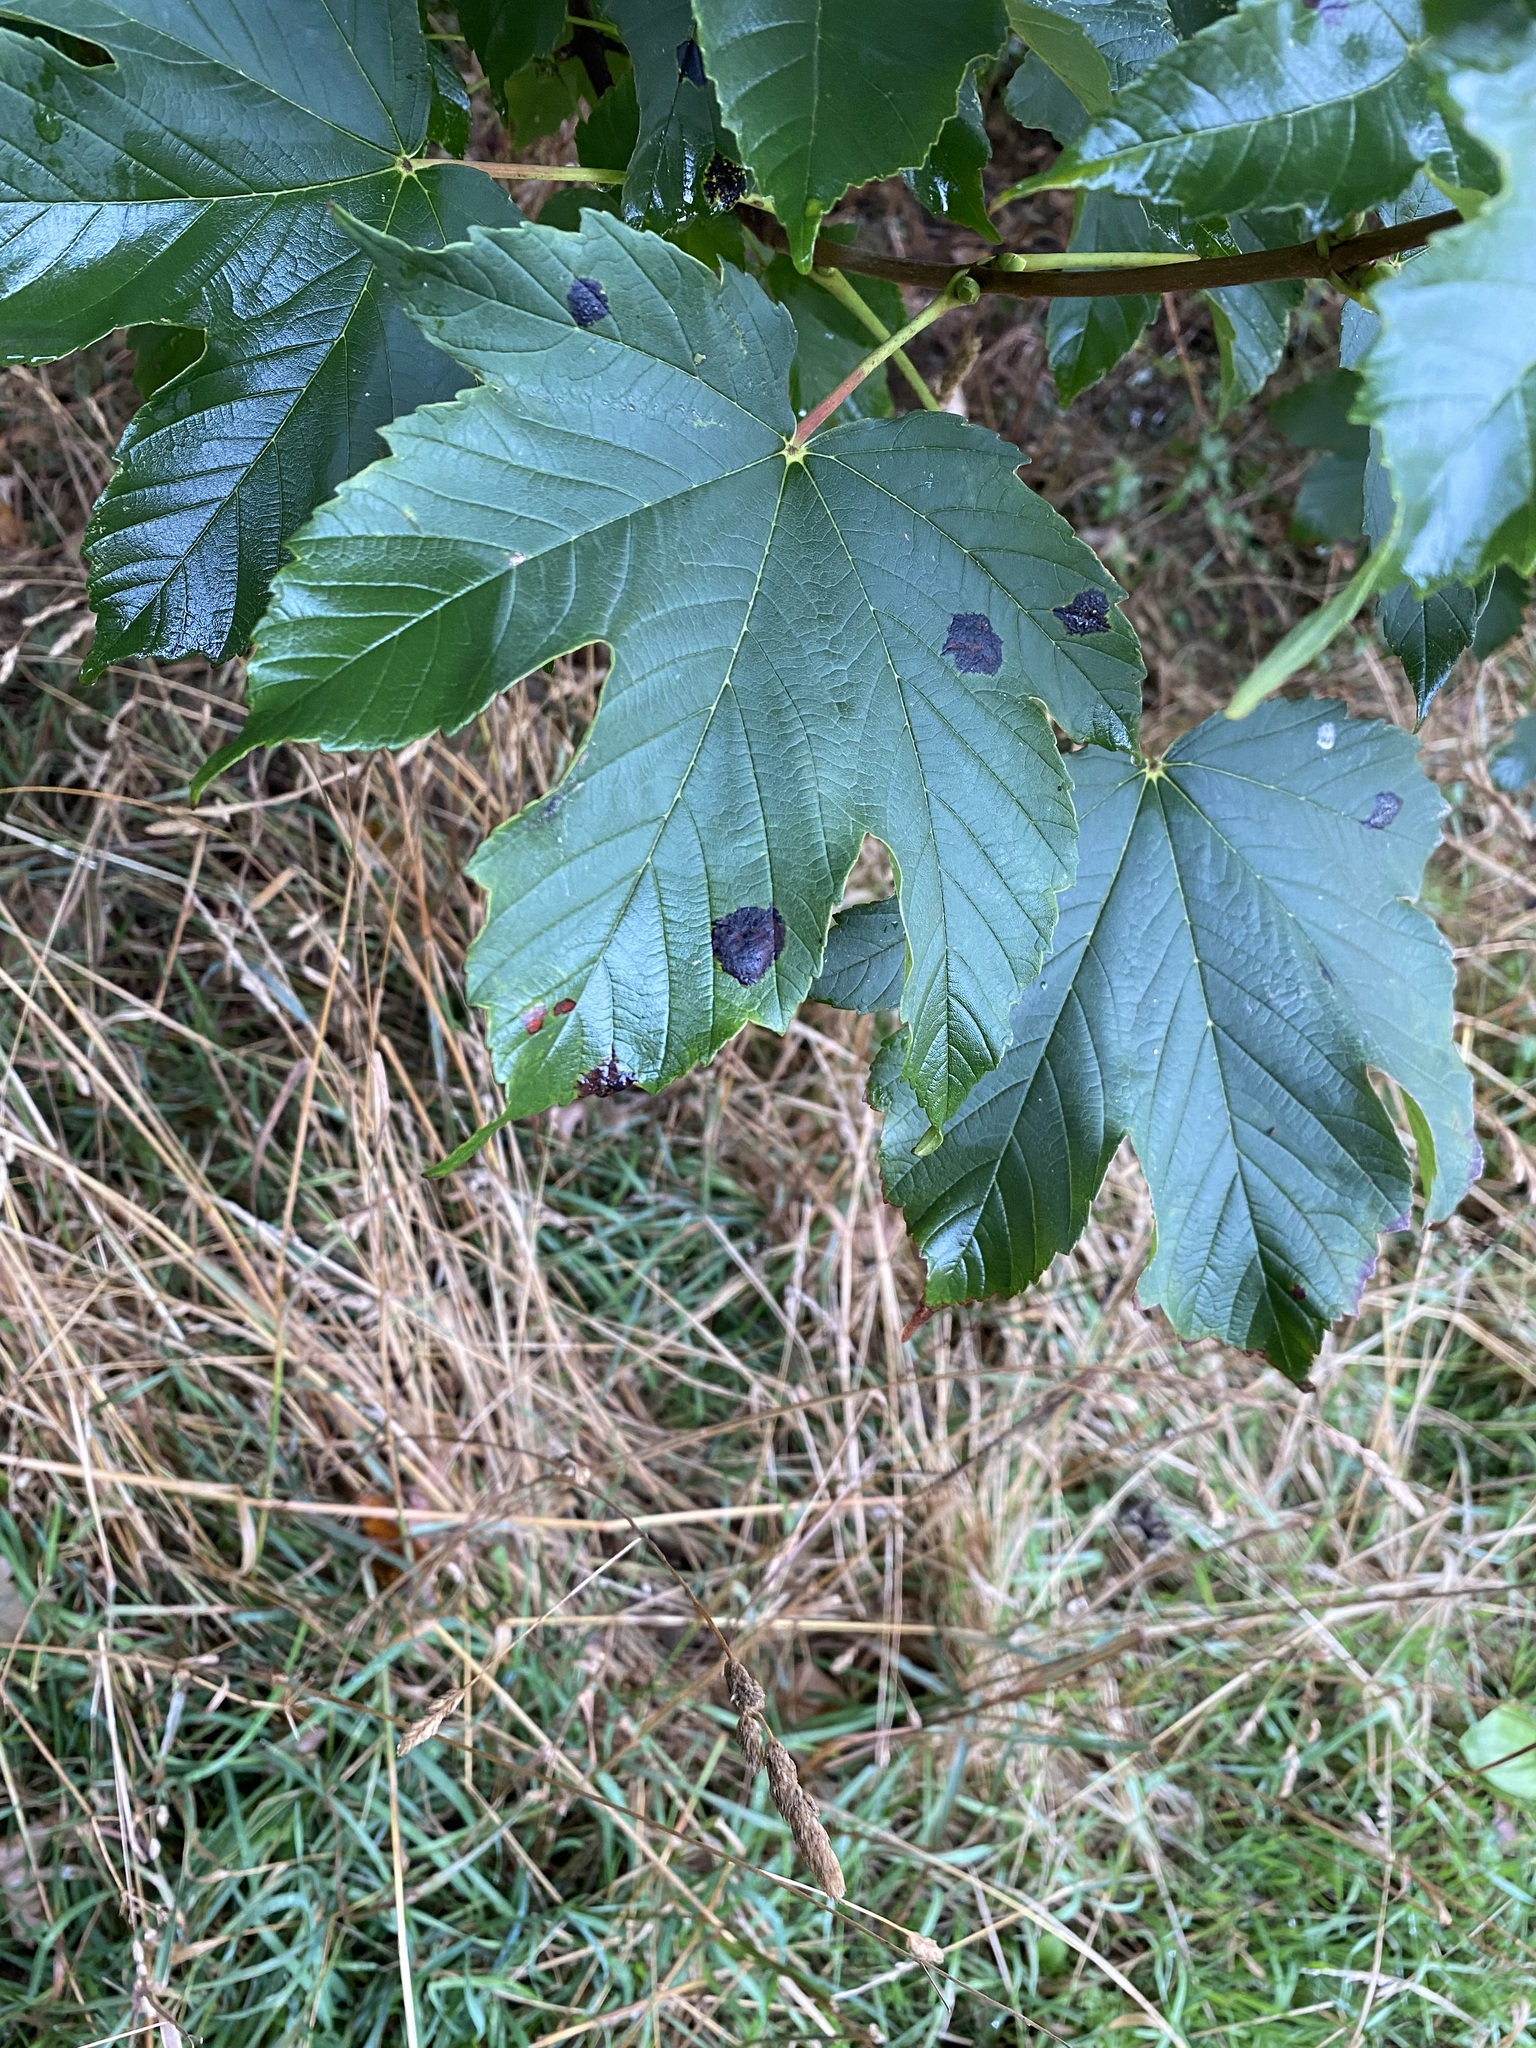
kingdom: Fungi
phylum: Ascomycota
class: Leotiomycetes
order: Rhytismatales
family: Rhytismataceae
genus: Rhytisma
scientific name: Rhytisma acerinum
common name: European tar spot
